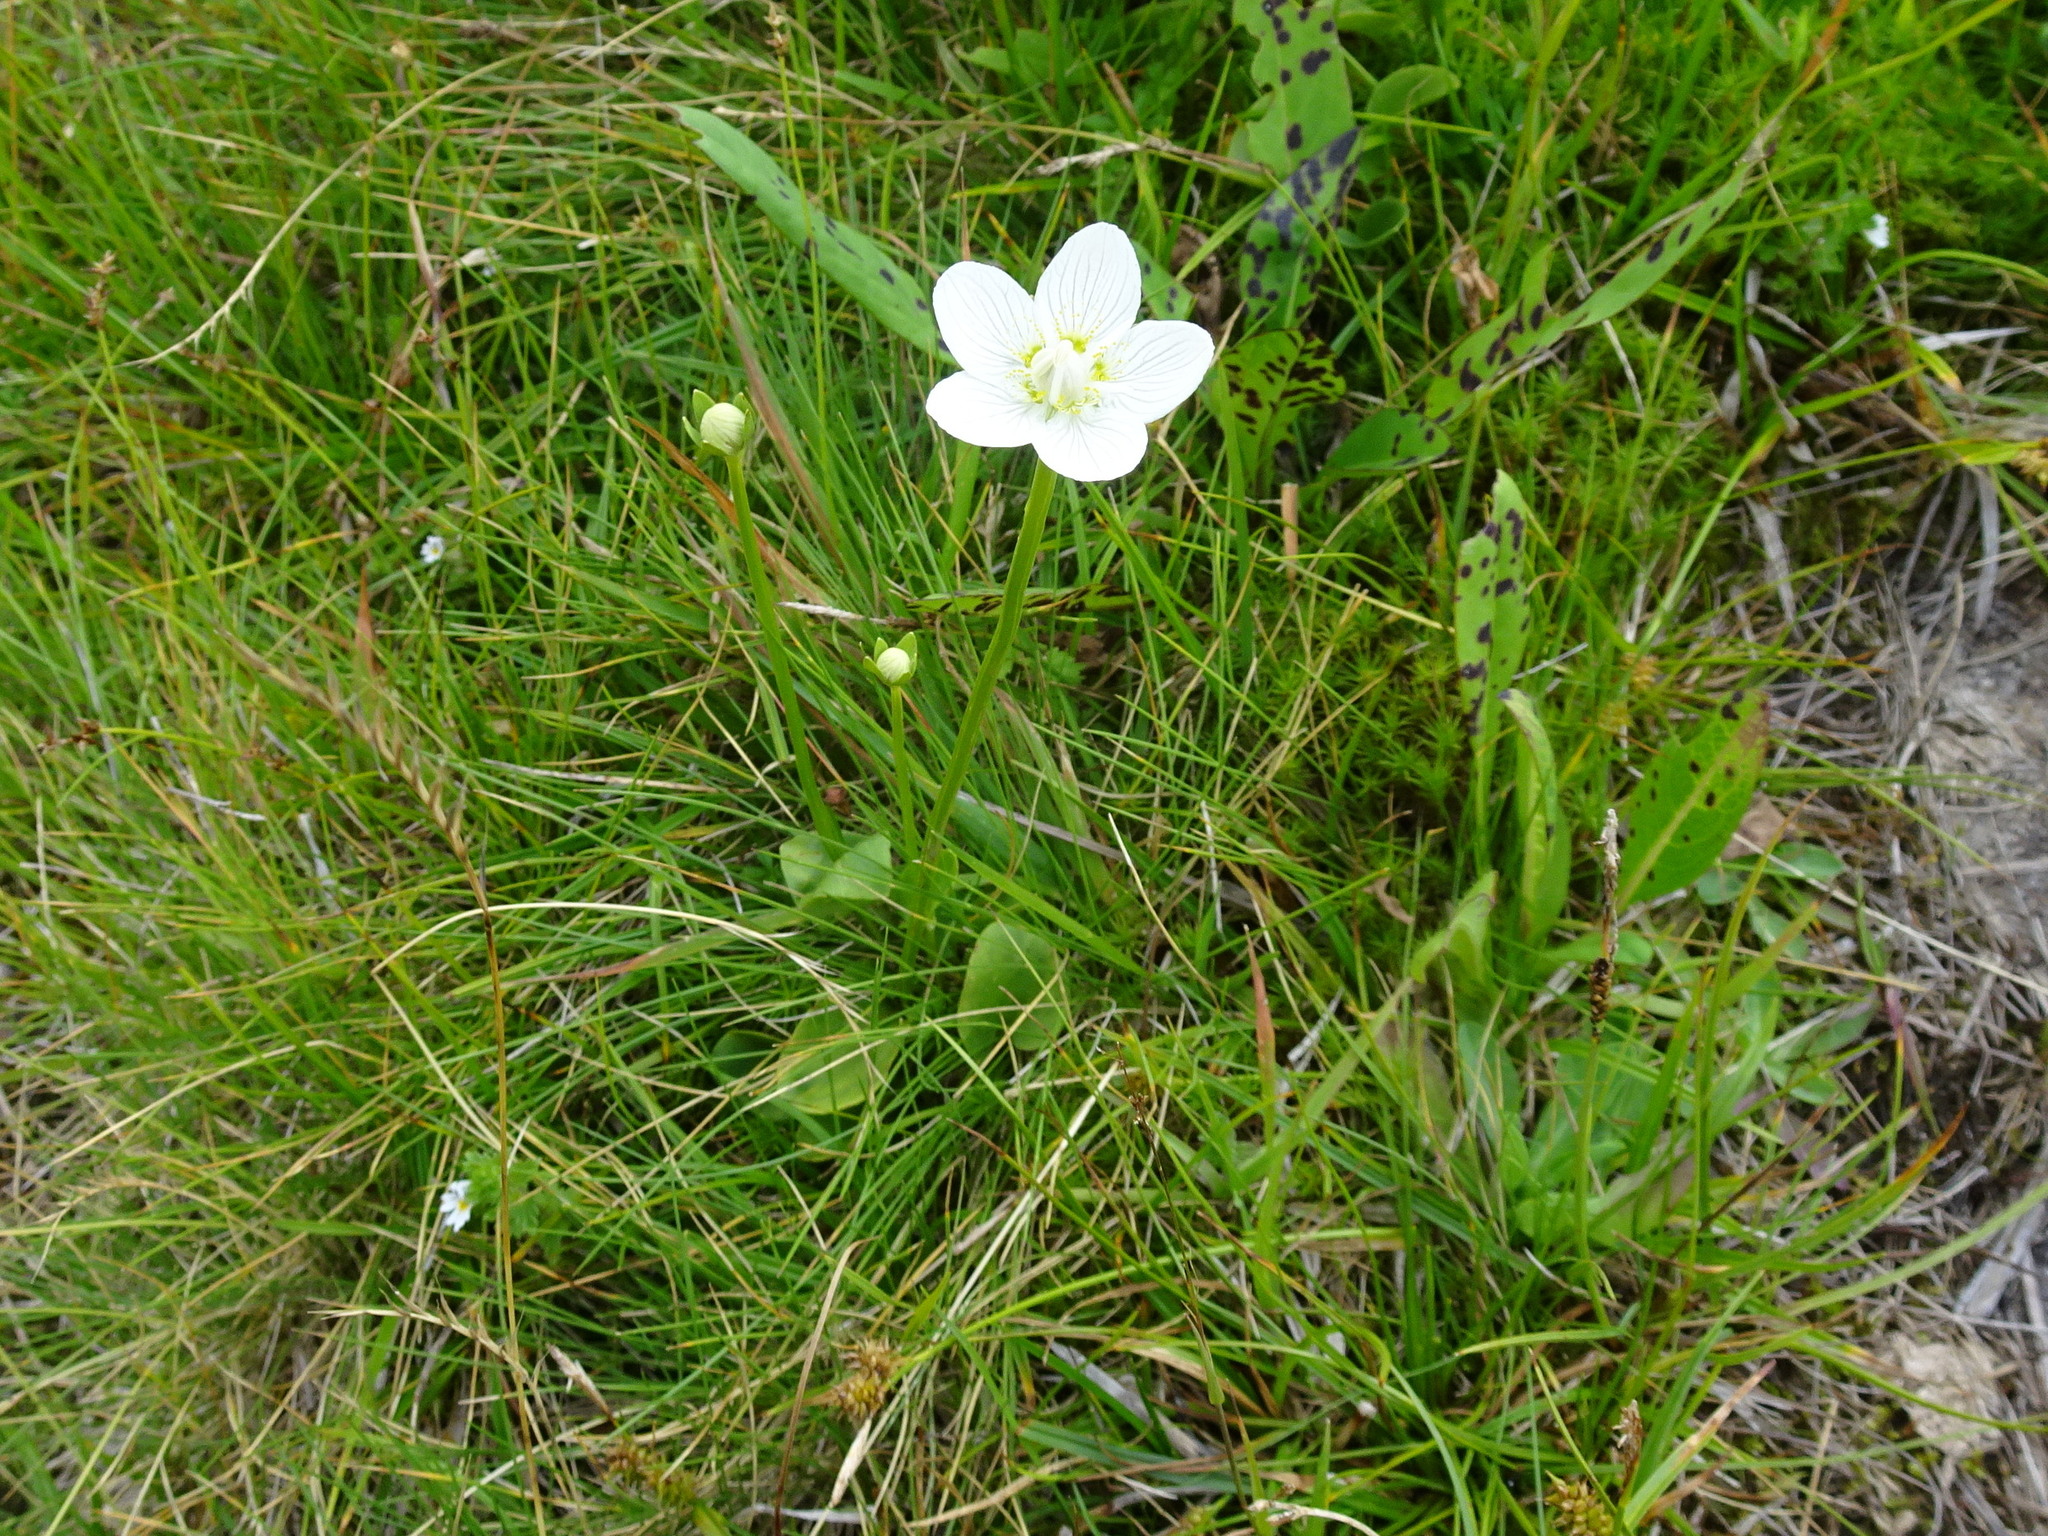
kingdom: Plantae
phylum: Tracheophyta
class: Magnoliopsida
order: Celastrales
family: Parnassiaceae
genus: Parnassia
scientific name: Parnassia palustris
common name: Grass-of-parnassus
